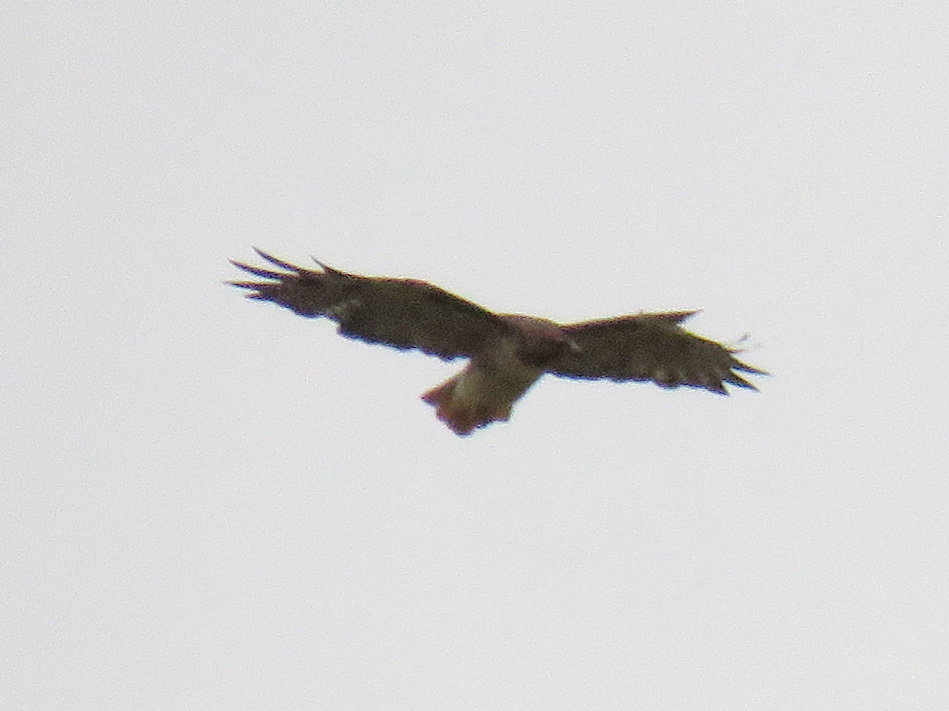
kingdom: Animalia
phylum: Chordata
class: Aves
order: Accipitriformes
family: Accipitridae
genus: Buteo
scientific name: Buteo jamaicensis
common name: Red-tailed hawk
